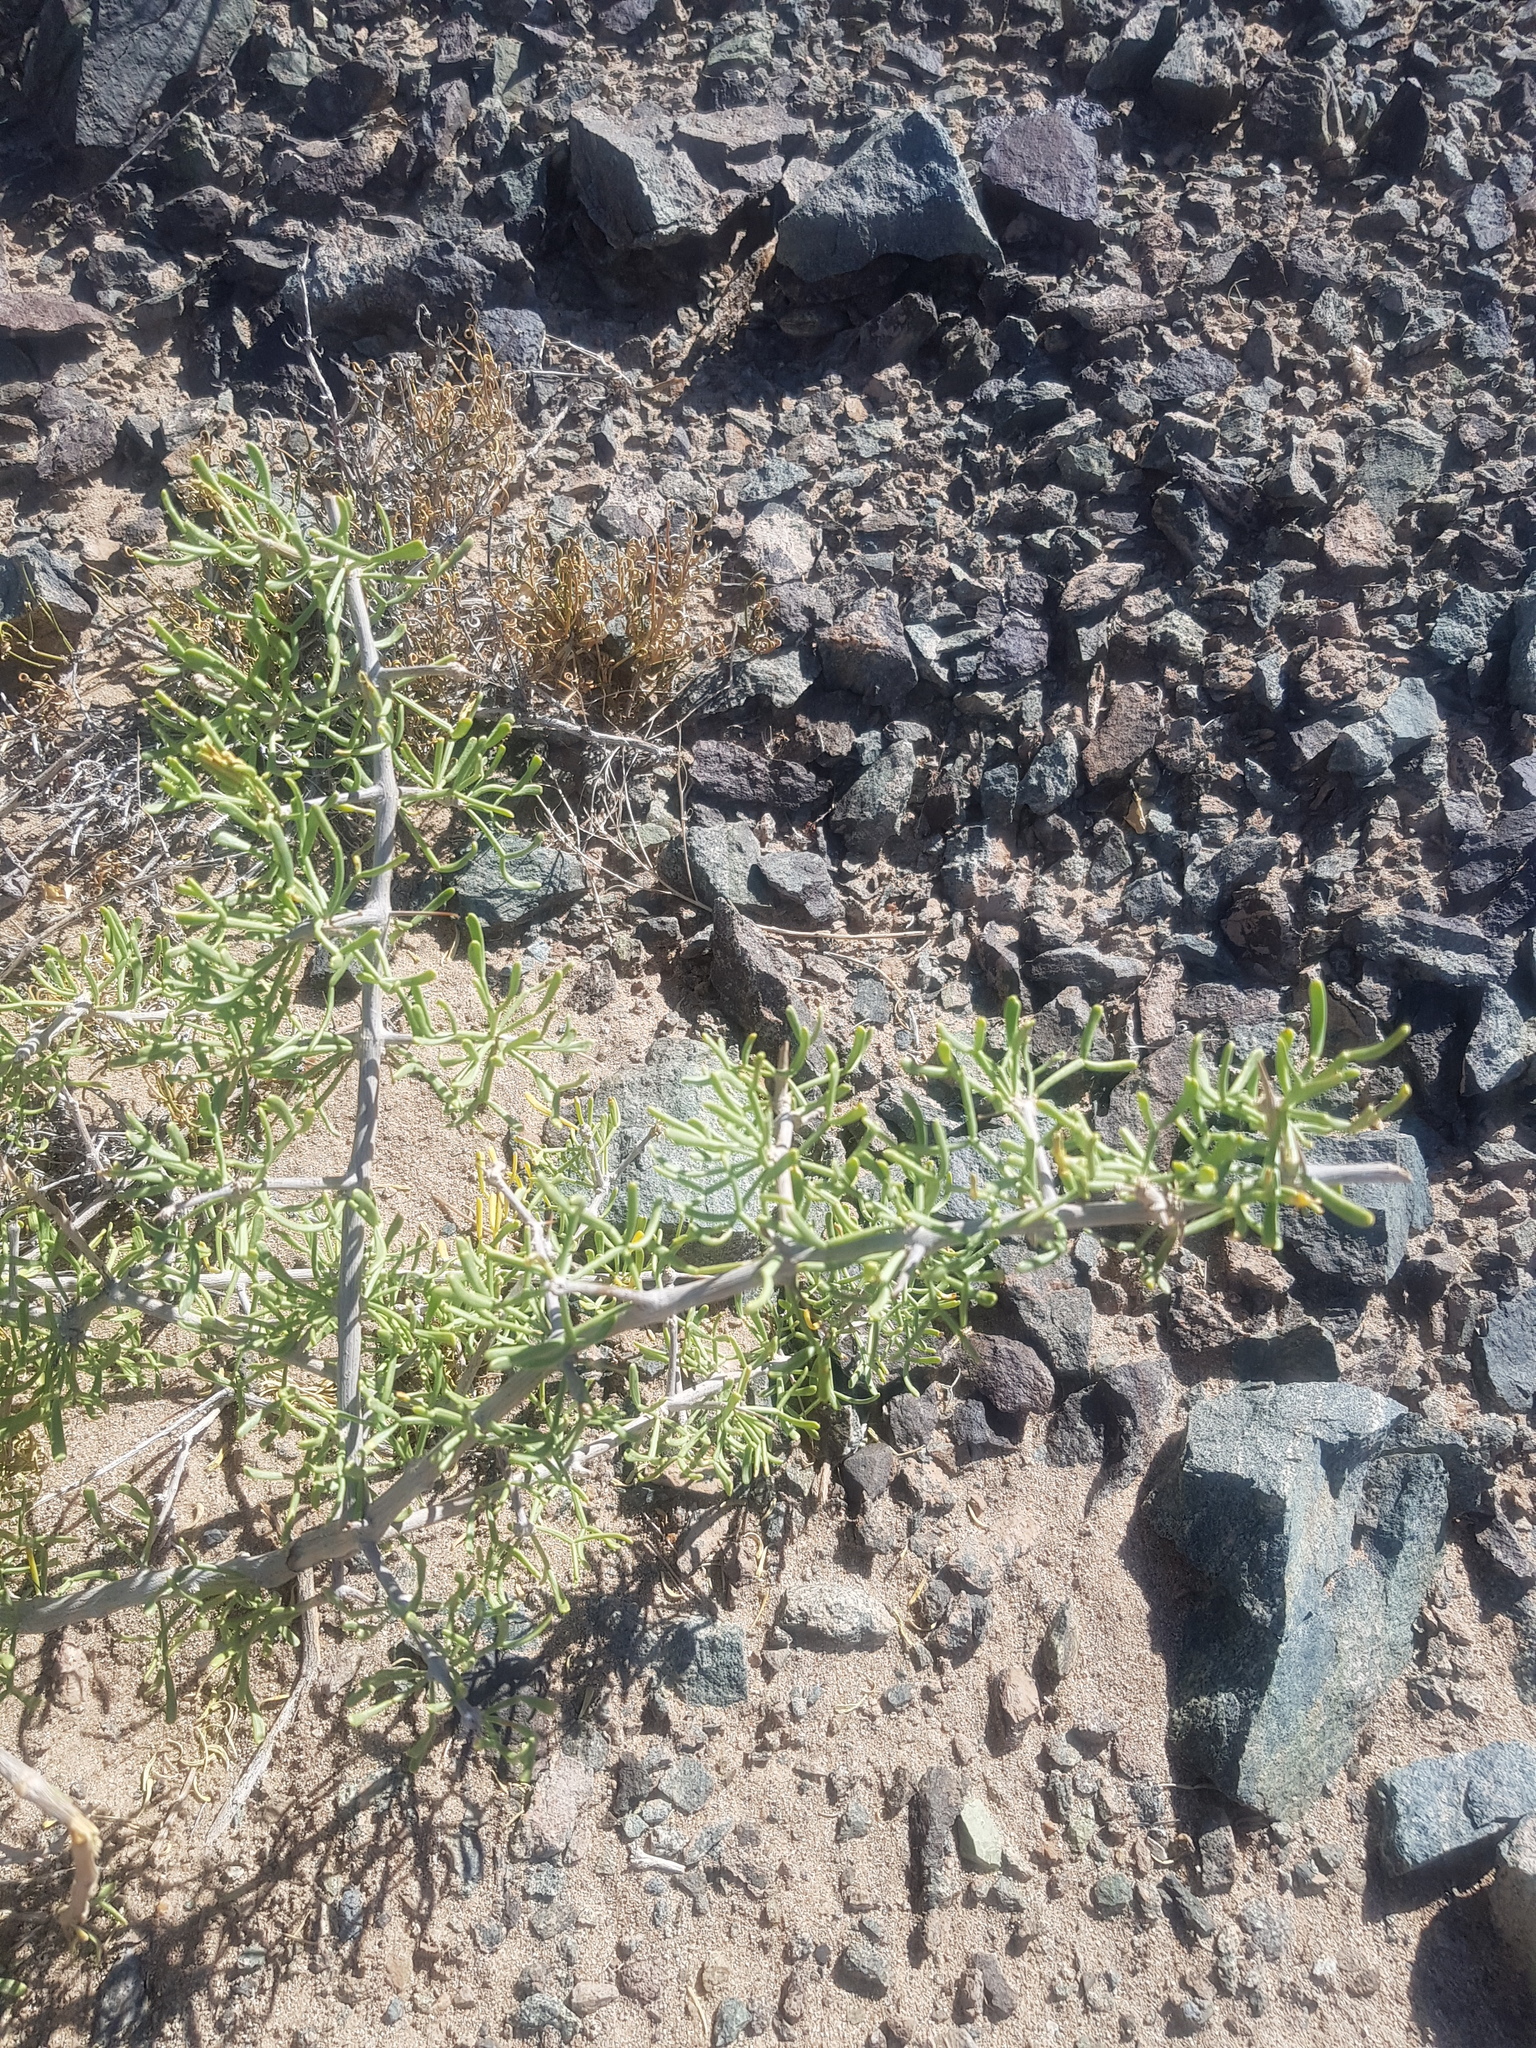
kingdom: Plantae
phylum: Tracheophyta
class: Magnoliopsida
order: Zygophyllales
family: Zygophyllaceae
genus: Zygophyllum
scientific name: Zygophyllum xanthoxylum
